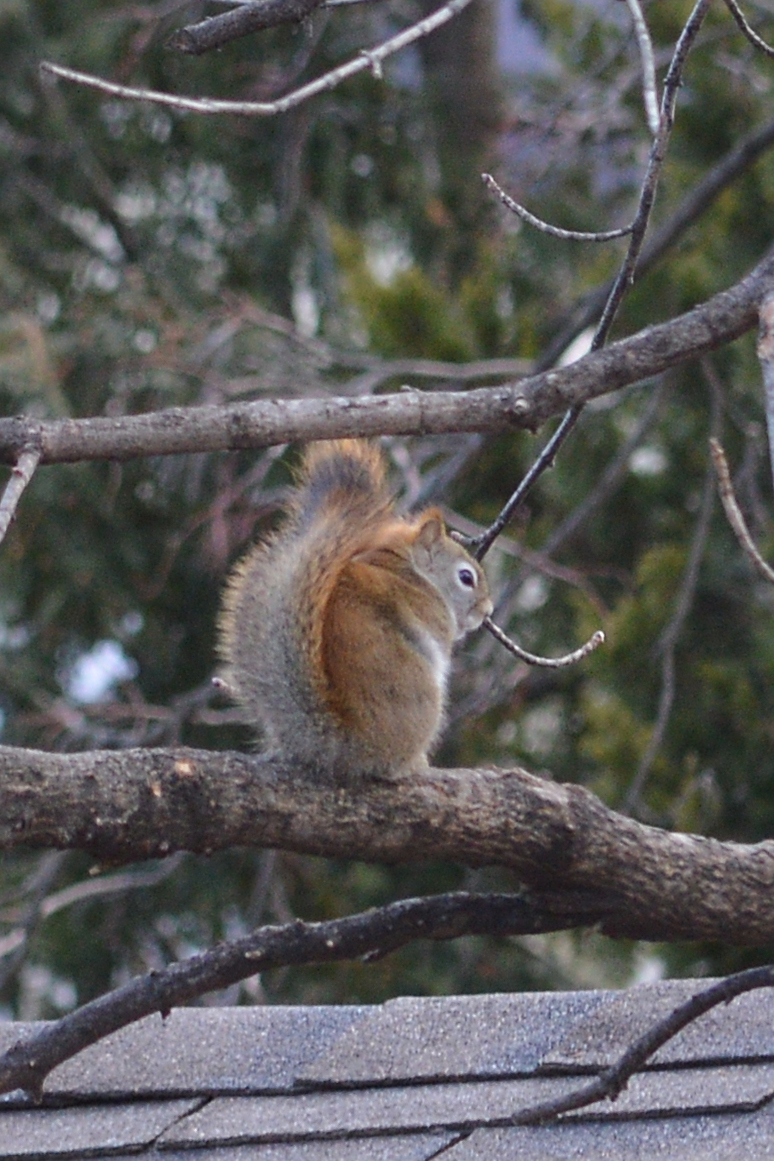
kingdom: Animalia
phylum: Chordata
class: Mammalia
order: Rodentia
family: Sciuridae
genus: Tamiasciurus
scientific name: Tamiasciurus hudsonicus
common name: Red squirrel
